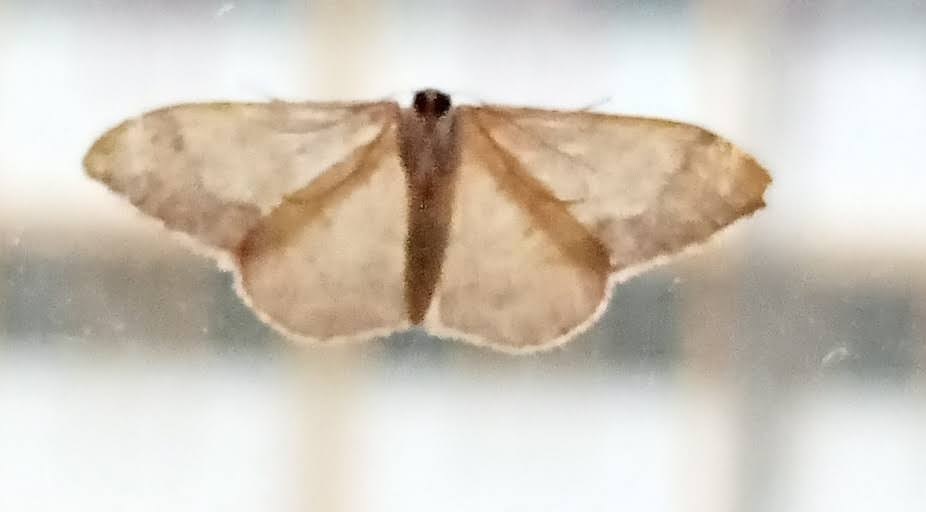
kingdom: Animalia
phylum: Arthropoda
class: Insecta
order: Lepidoptera
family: Geometridae
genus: Idaea
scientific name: Idaea politaria
